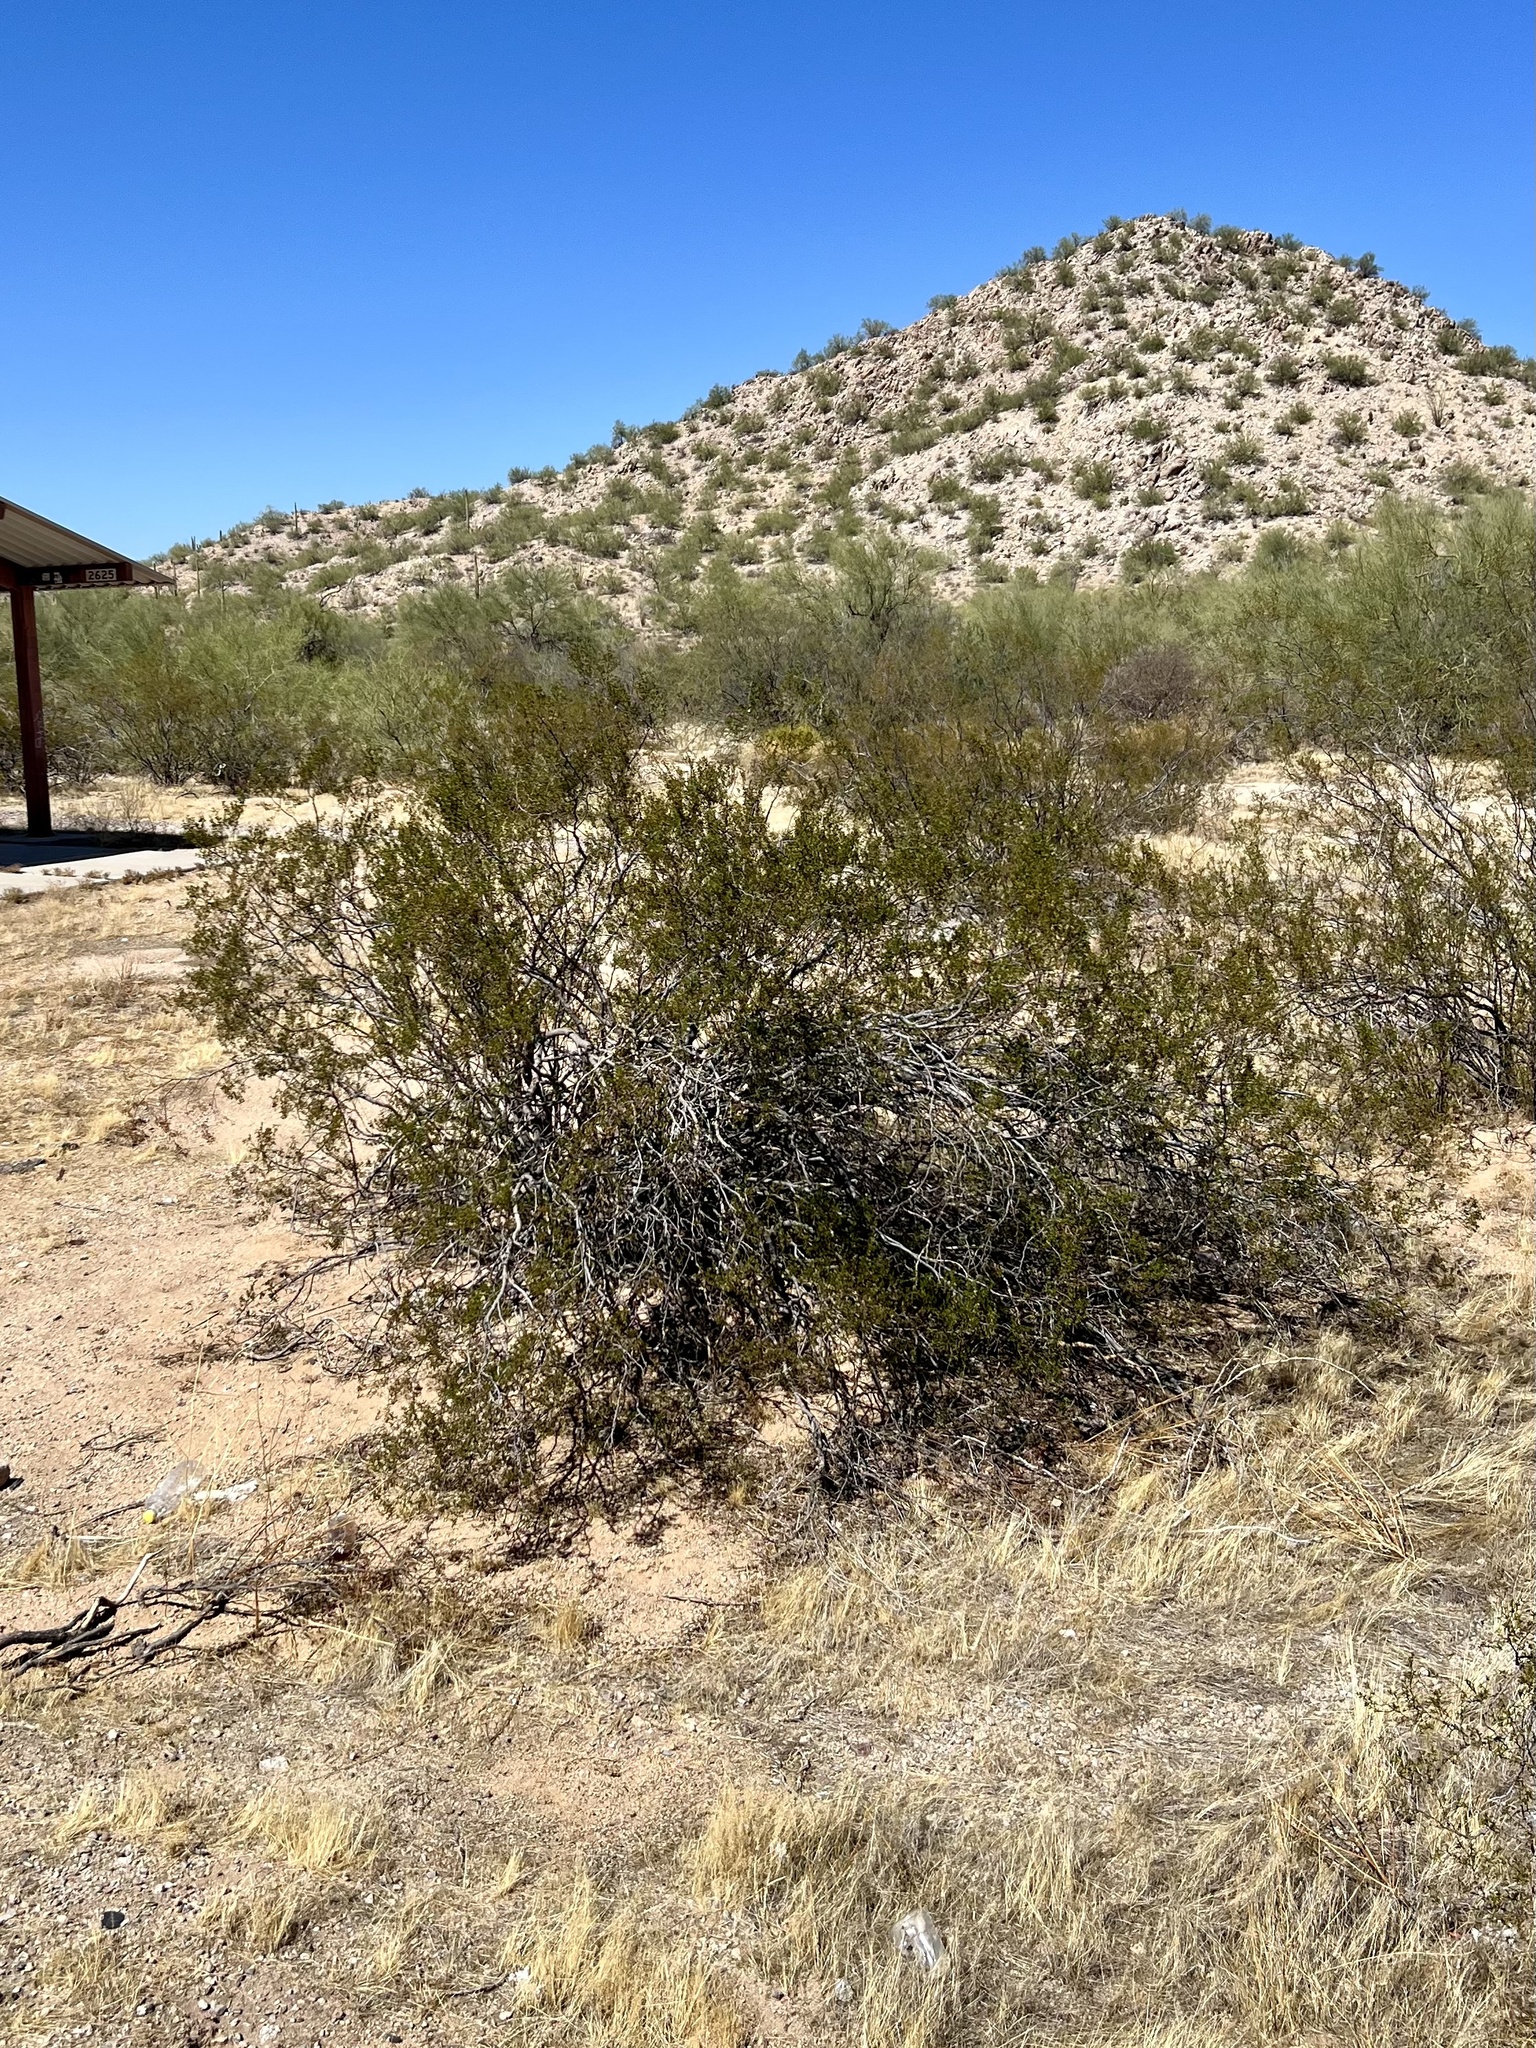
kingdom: Plantae
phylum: Tracheophyta
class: Magnoliopsida
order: Zygophyllales
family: Zygophyllaceae
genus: Larrea
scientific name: Larrea tridentata
